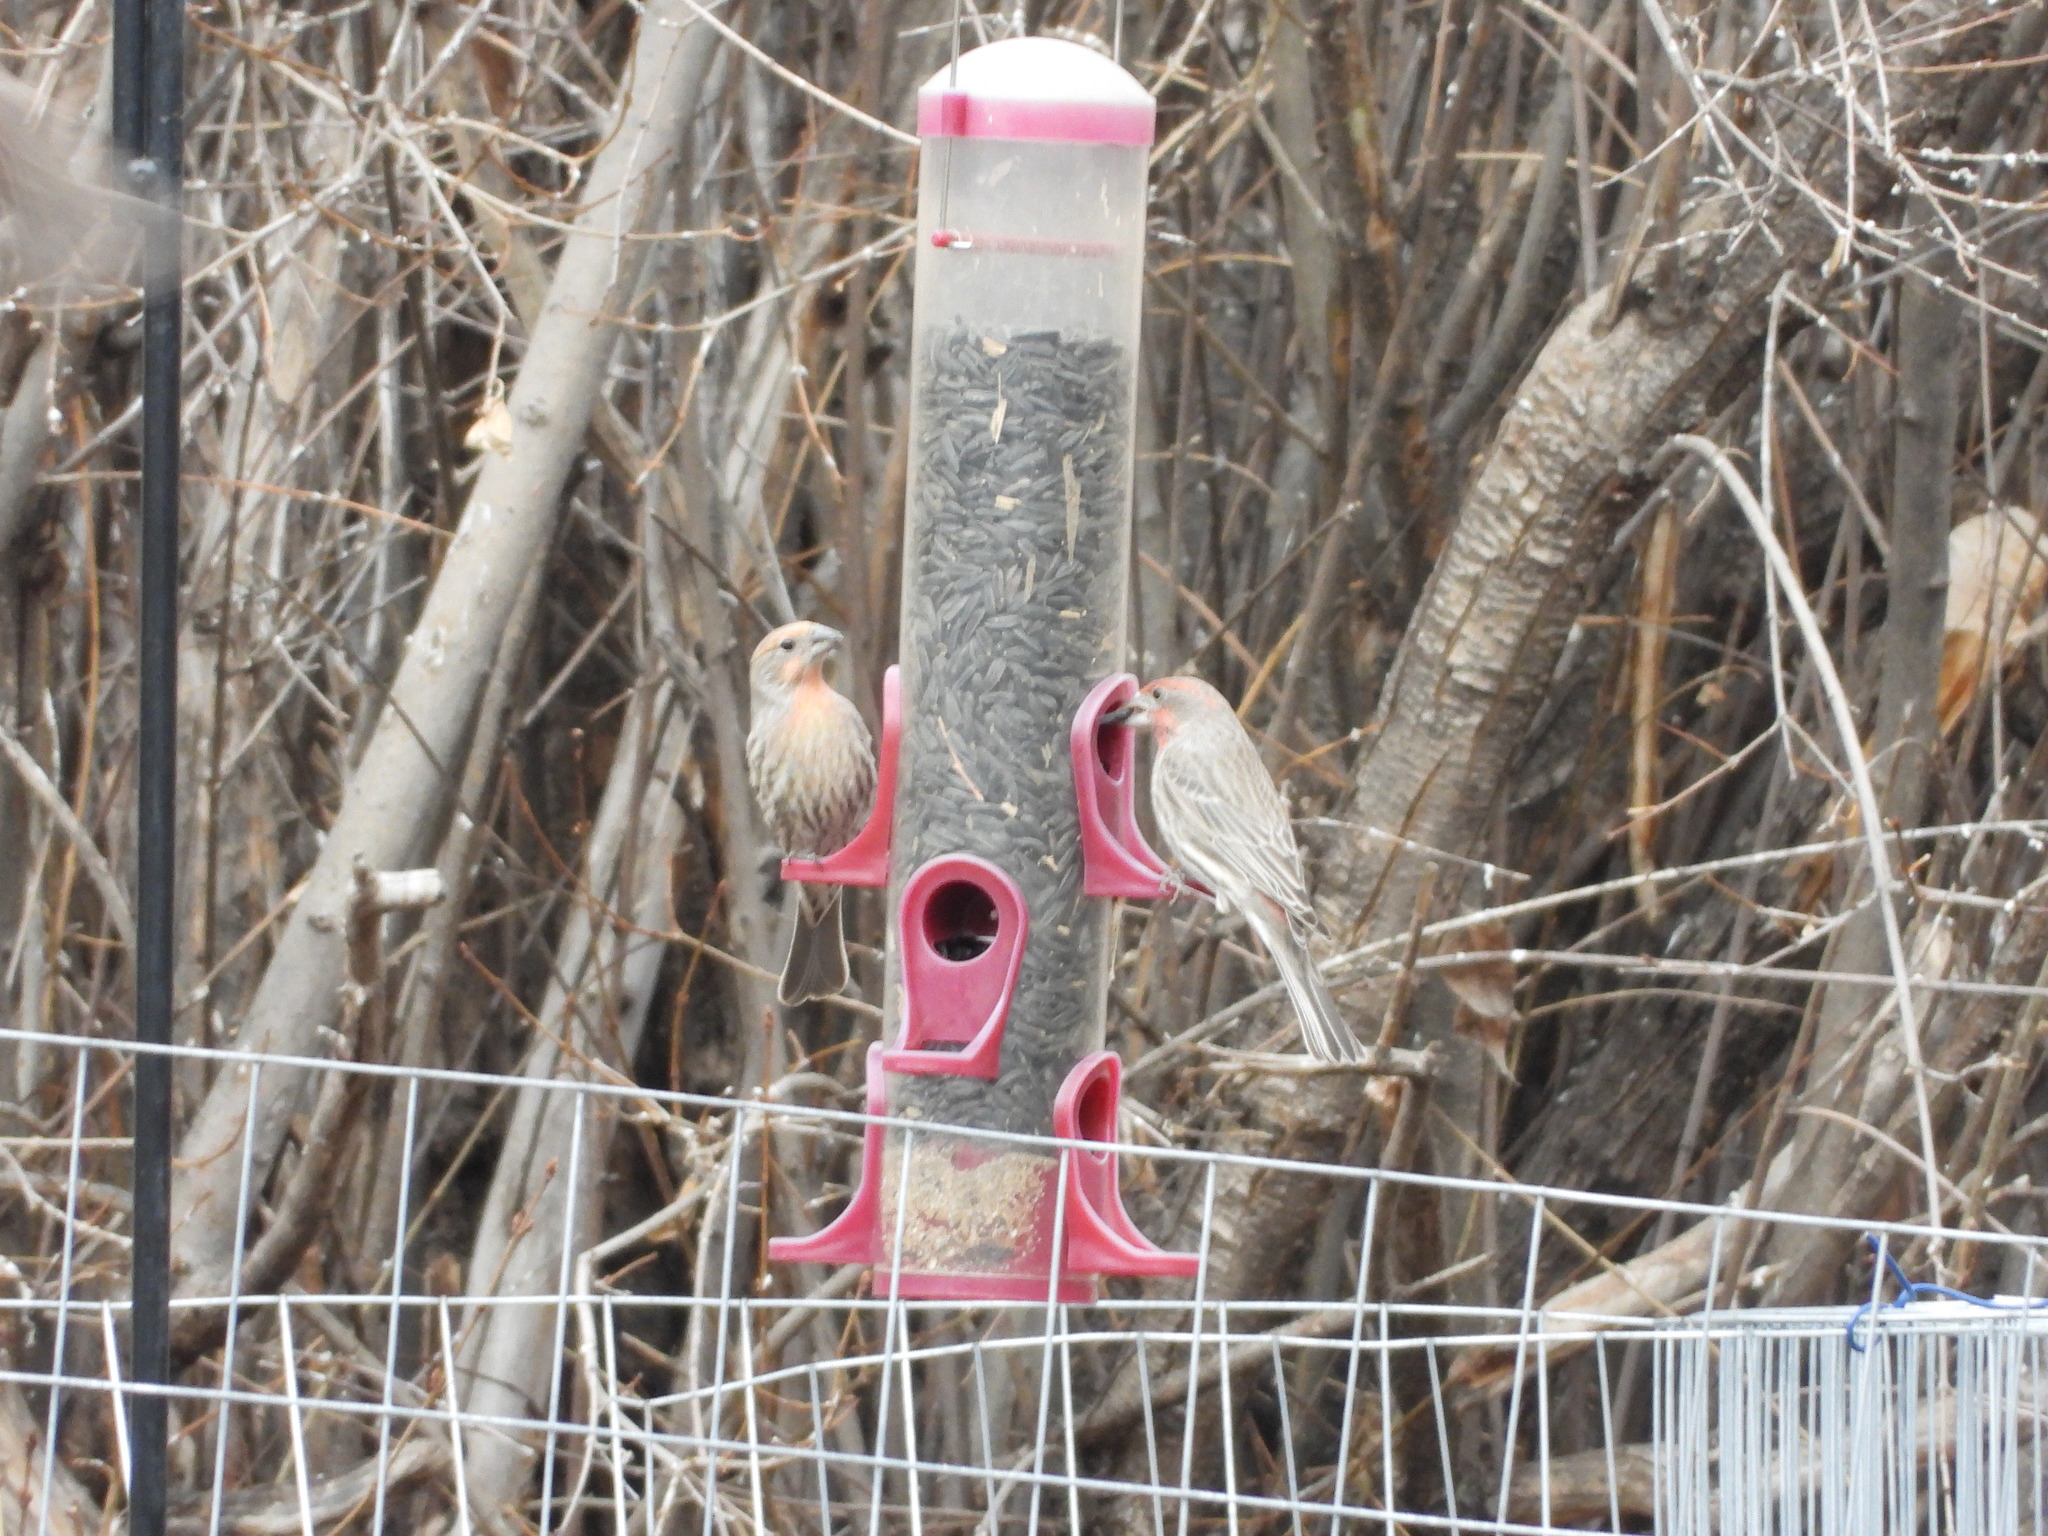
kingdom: Animalia
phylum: Chordata
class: Aves
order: Passeriformes
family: Fringillidae
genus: Haemorhous
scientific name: Haemorhous mexicanus
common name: House finch
